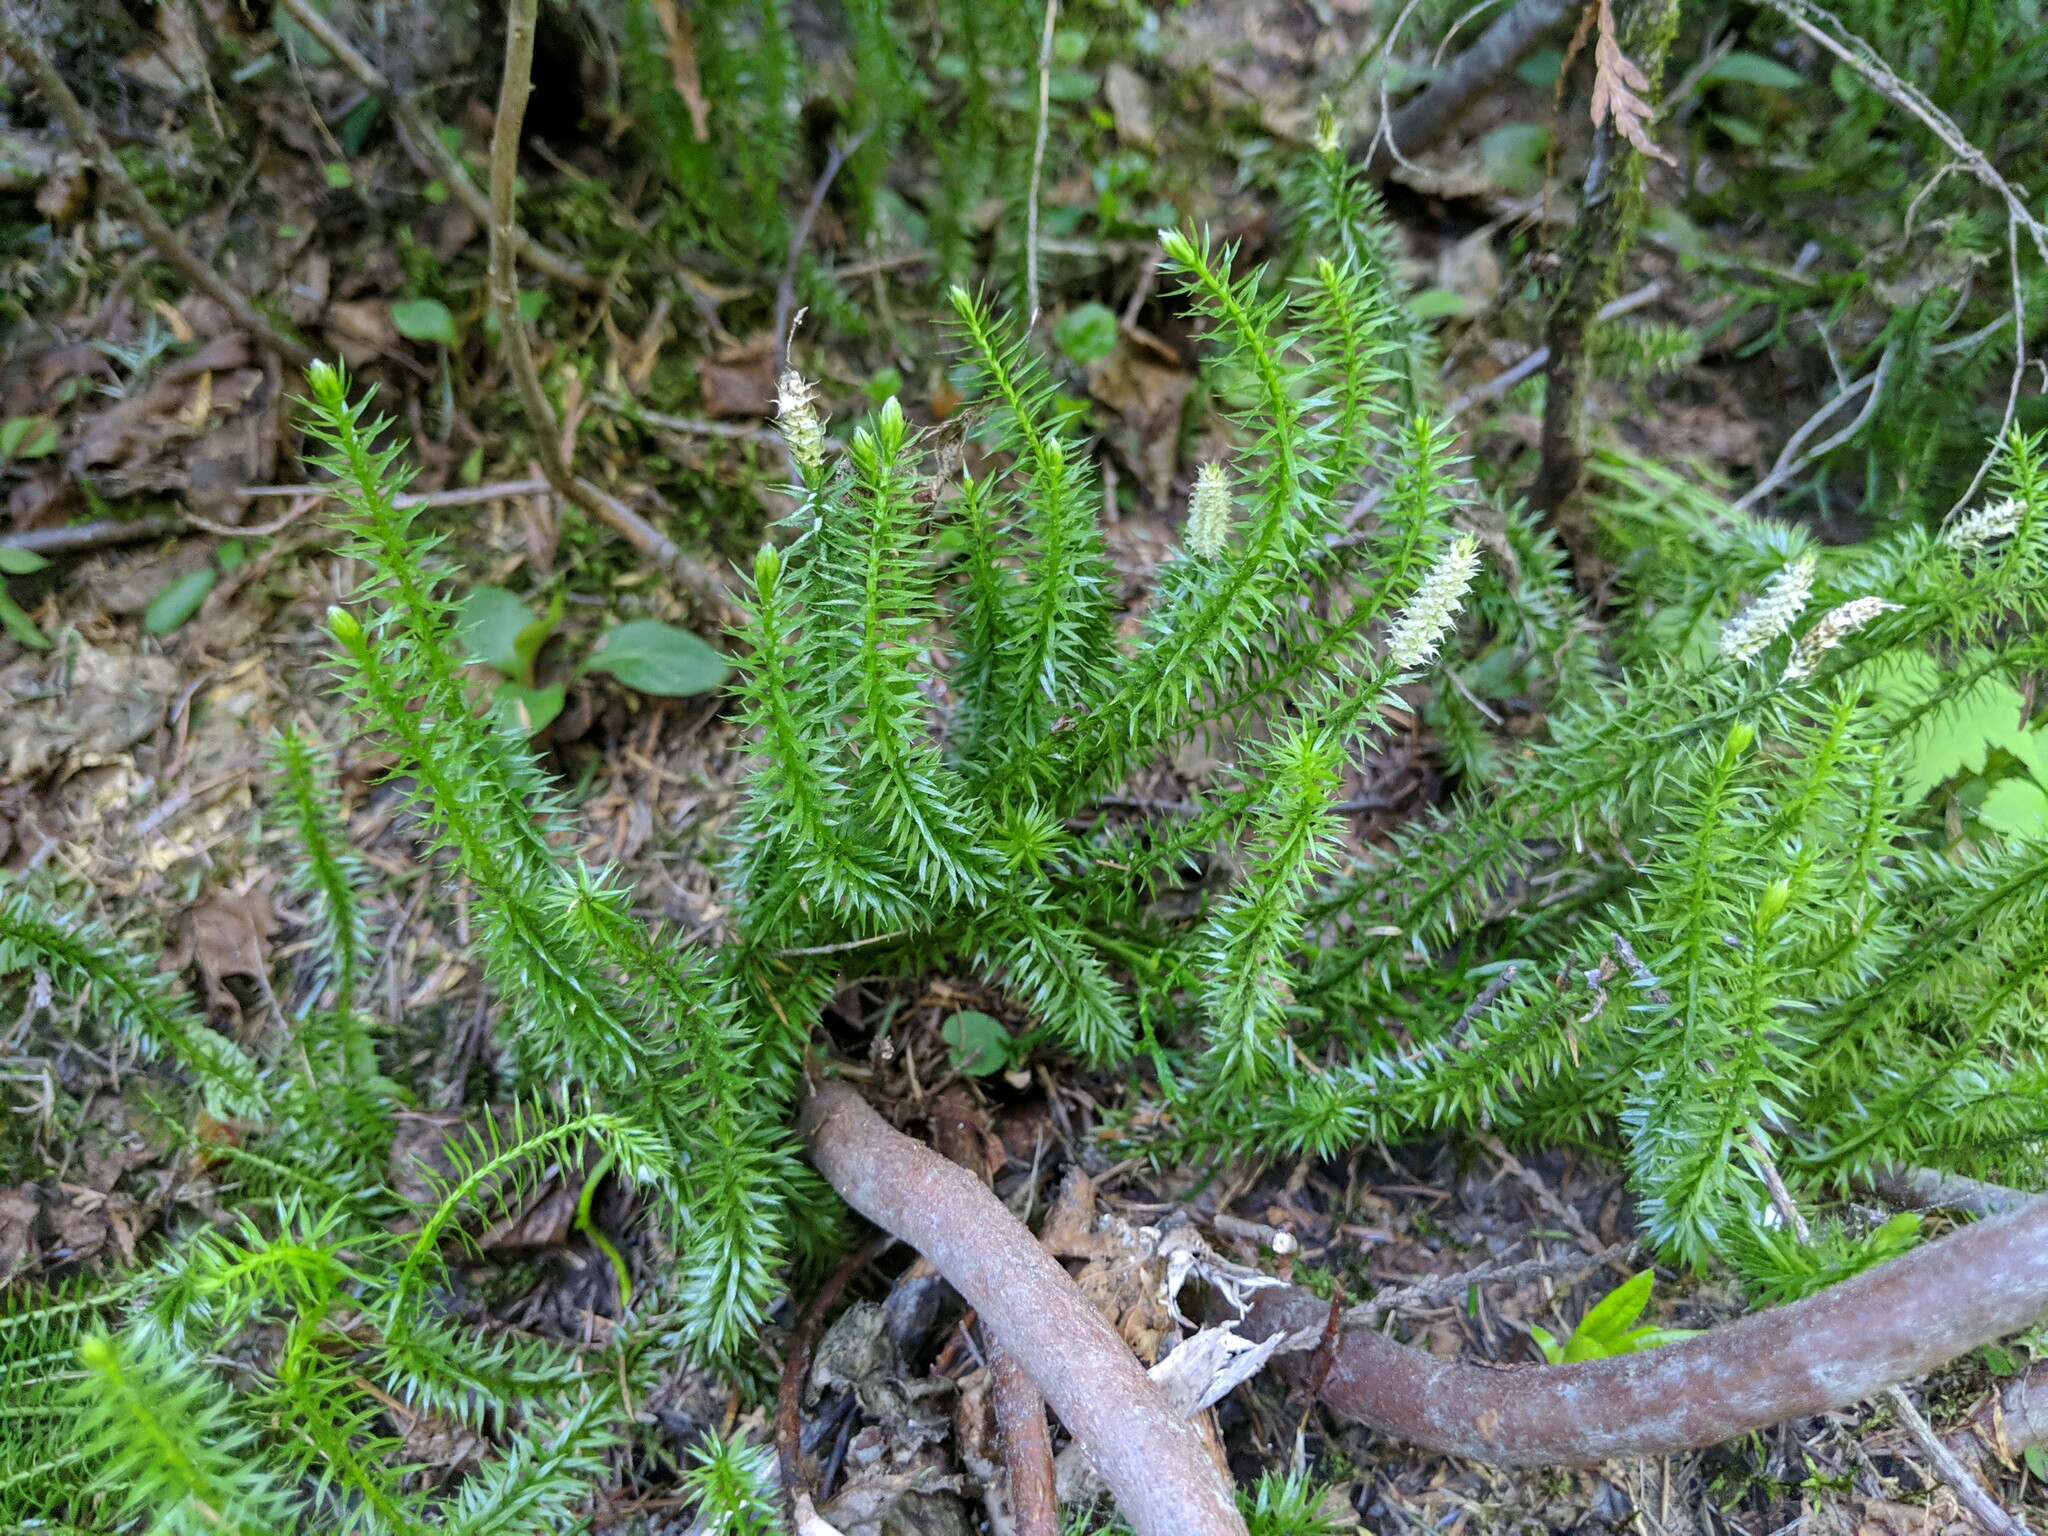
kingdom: Plantae
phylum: Tracheophyta
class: Lycopodiopsida
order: Lycopodiales
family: Lycopodiaceae
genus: Spinulum
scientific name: Spinulum annotinum
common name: Interrupted club-moss
